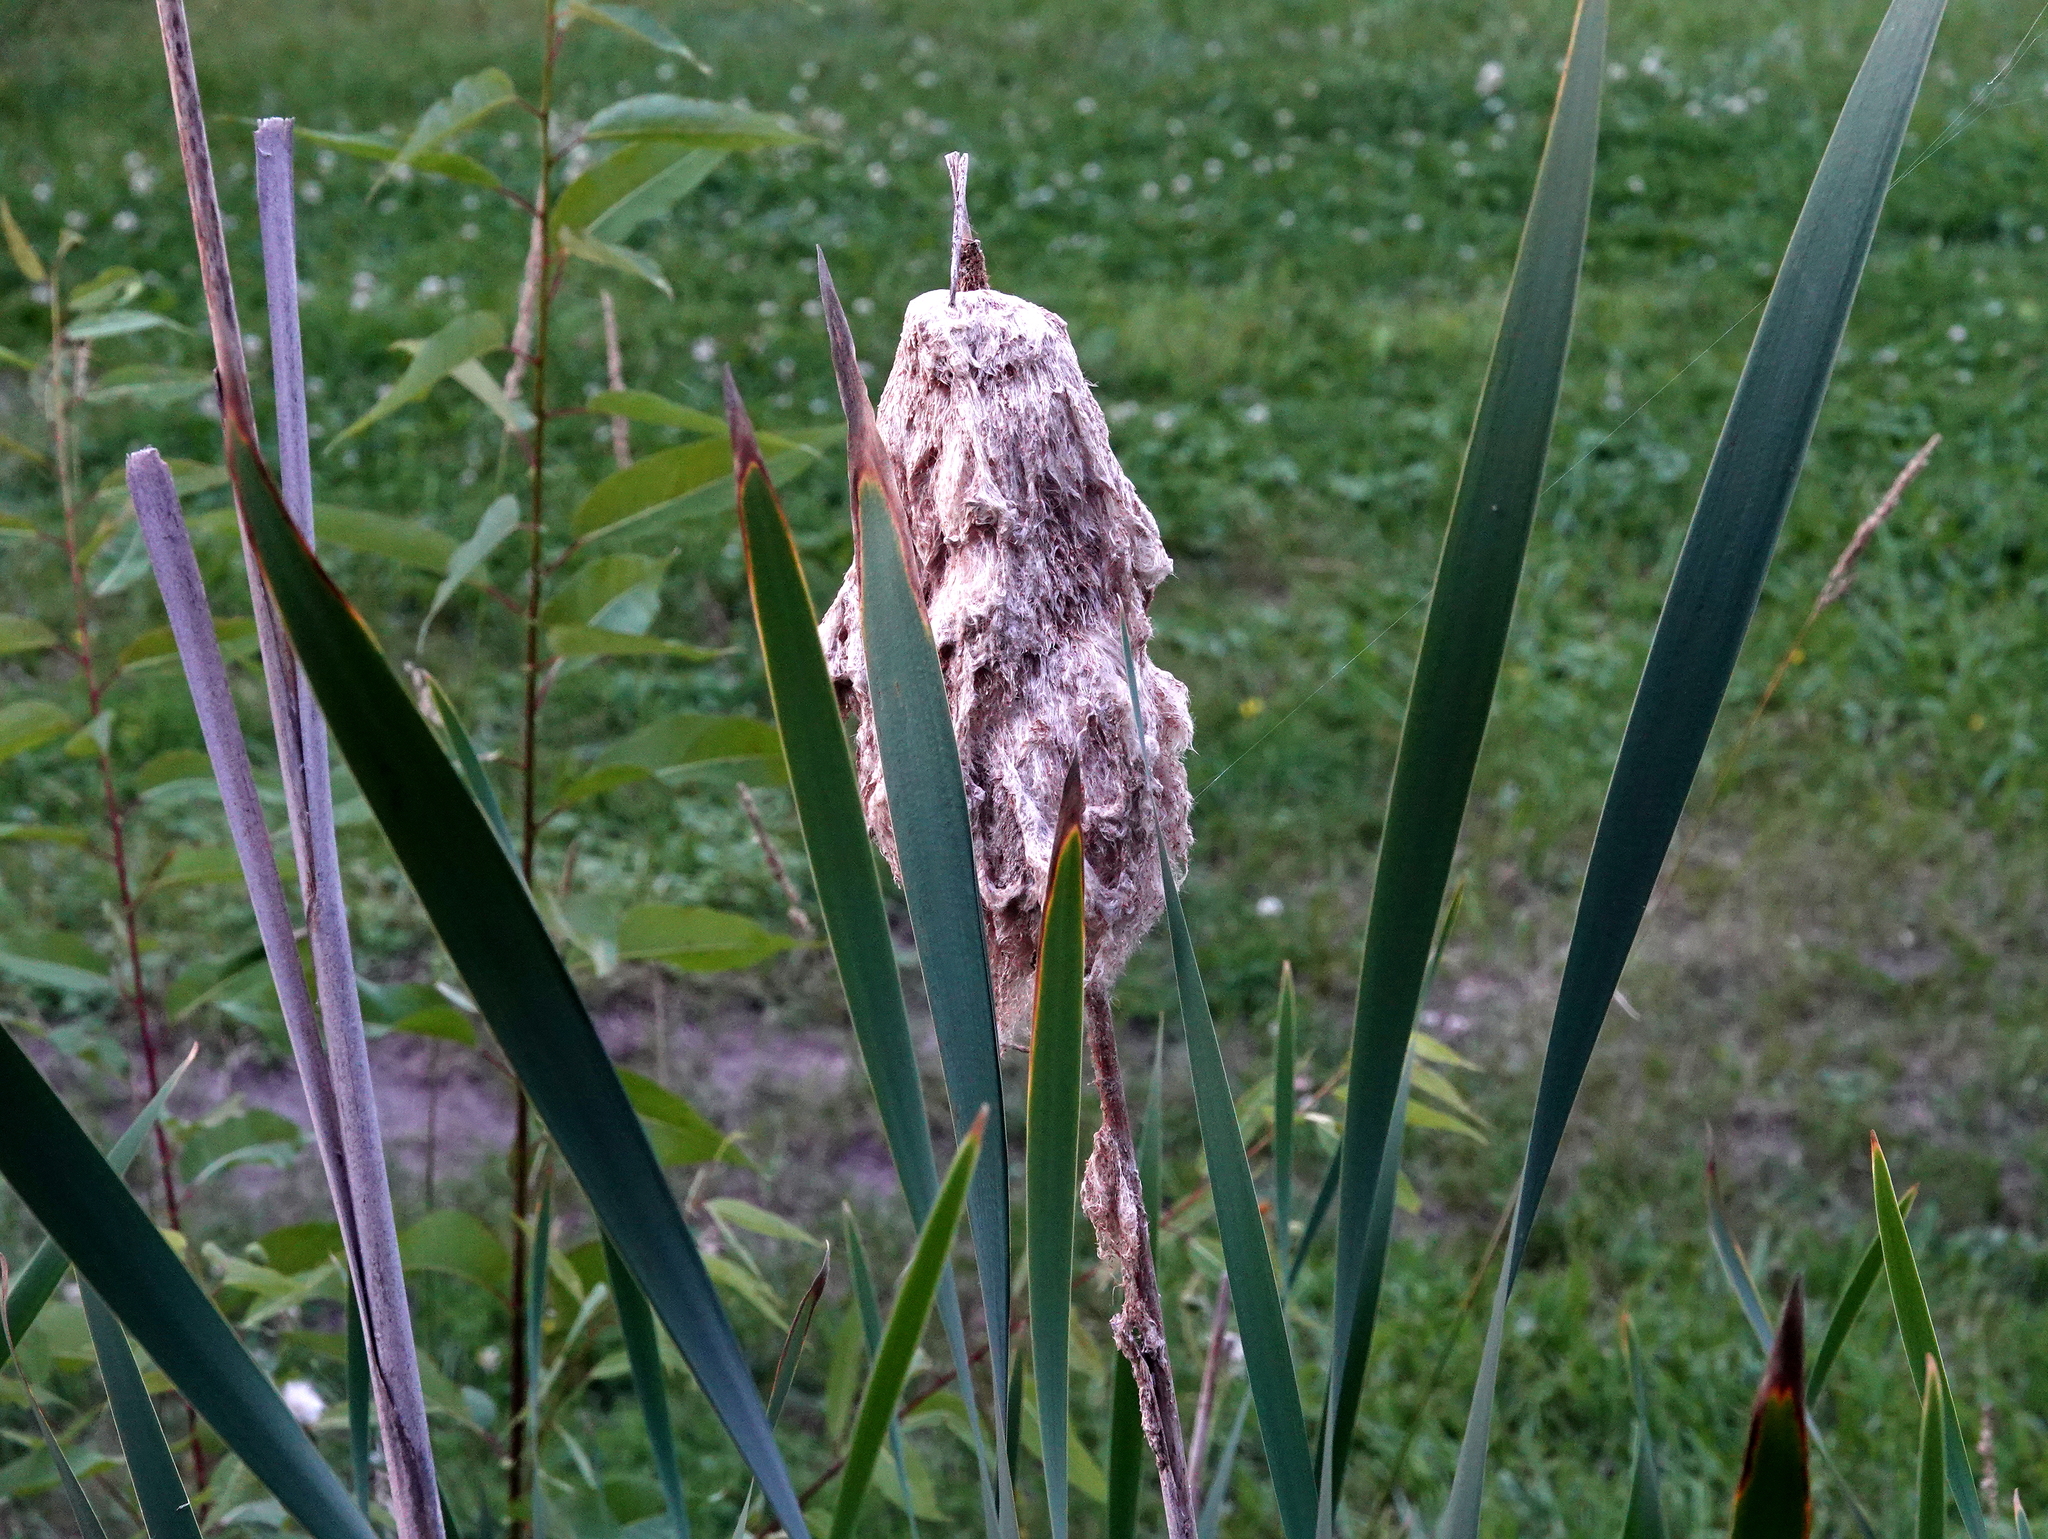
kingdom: Plantae
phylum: Tracheophyta
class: Liliopsida
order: Poales
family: Typhaceae
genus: Typha
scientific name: Typha latifolia
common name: Broadleaf cattail
